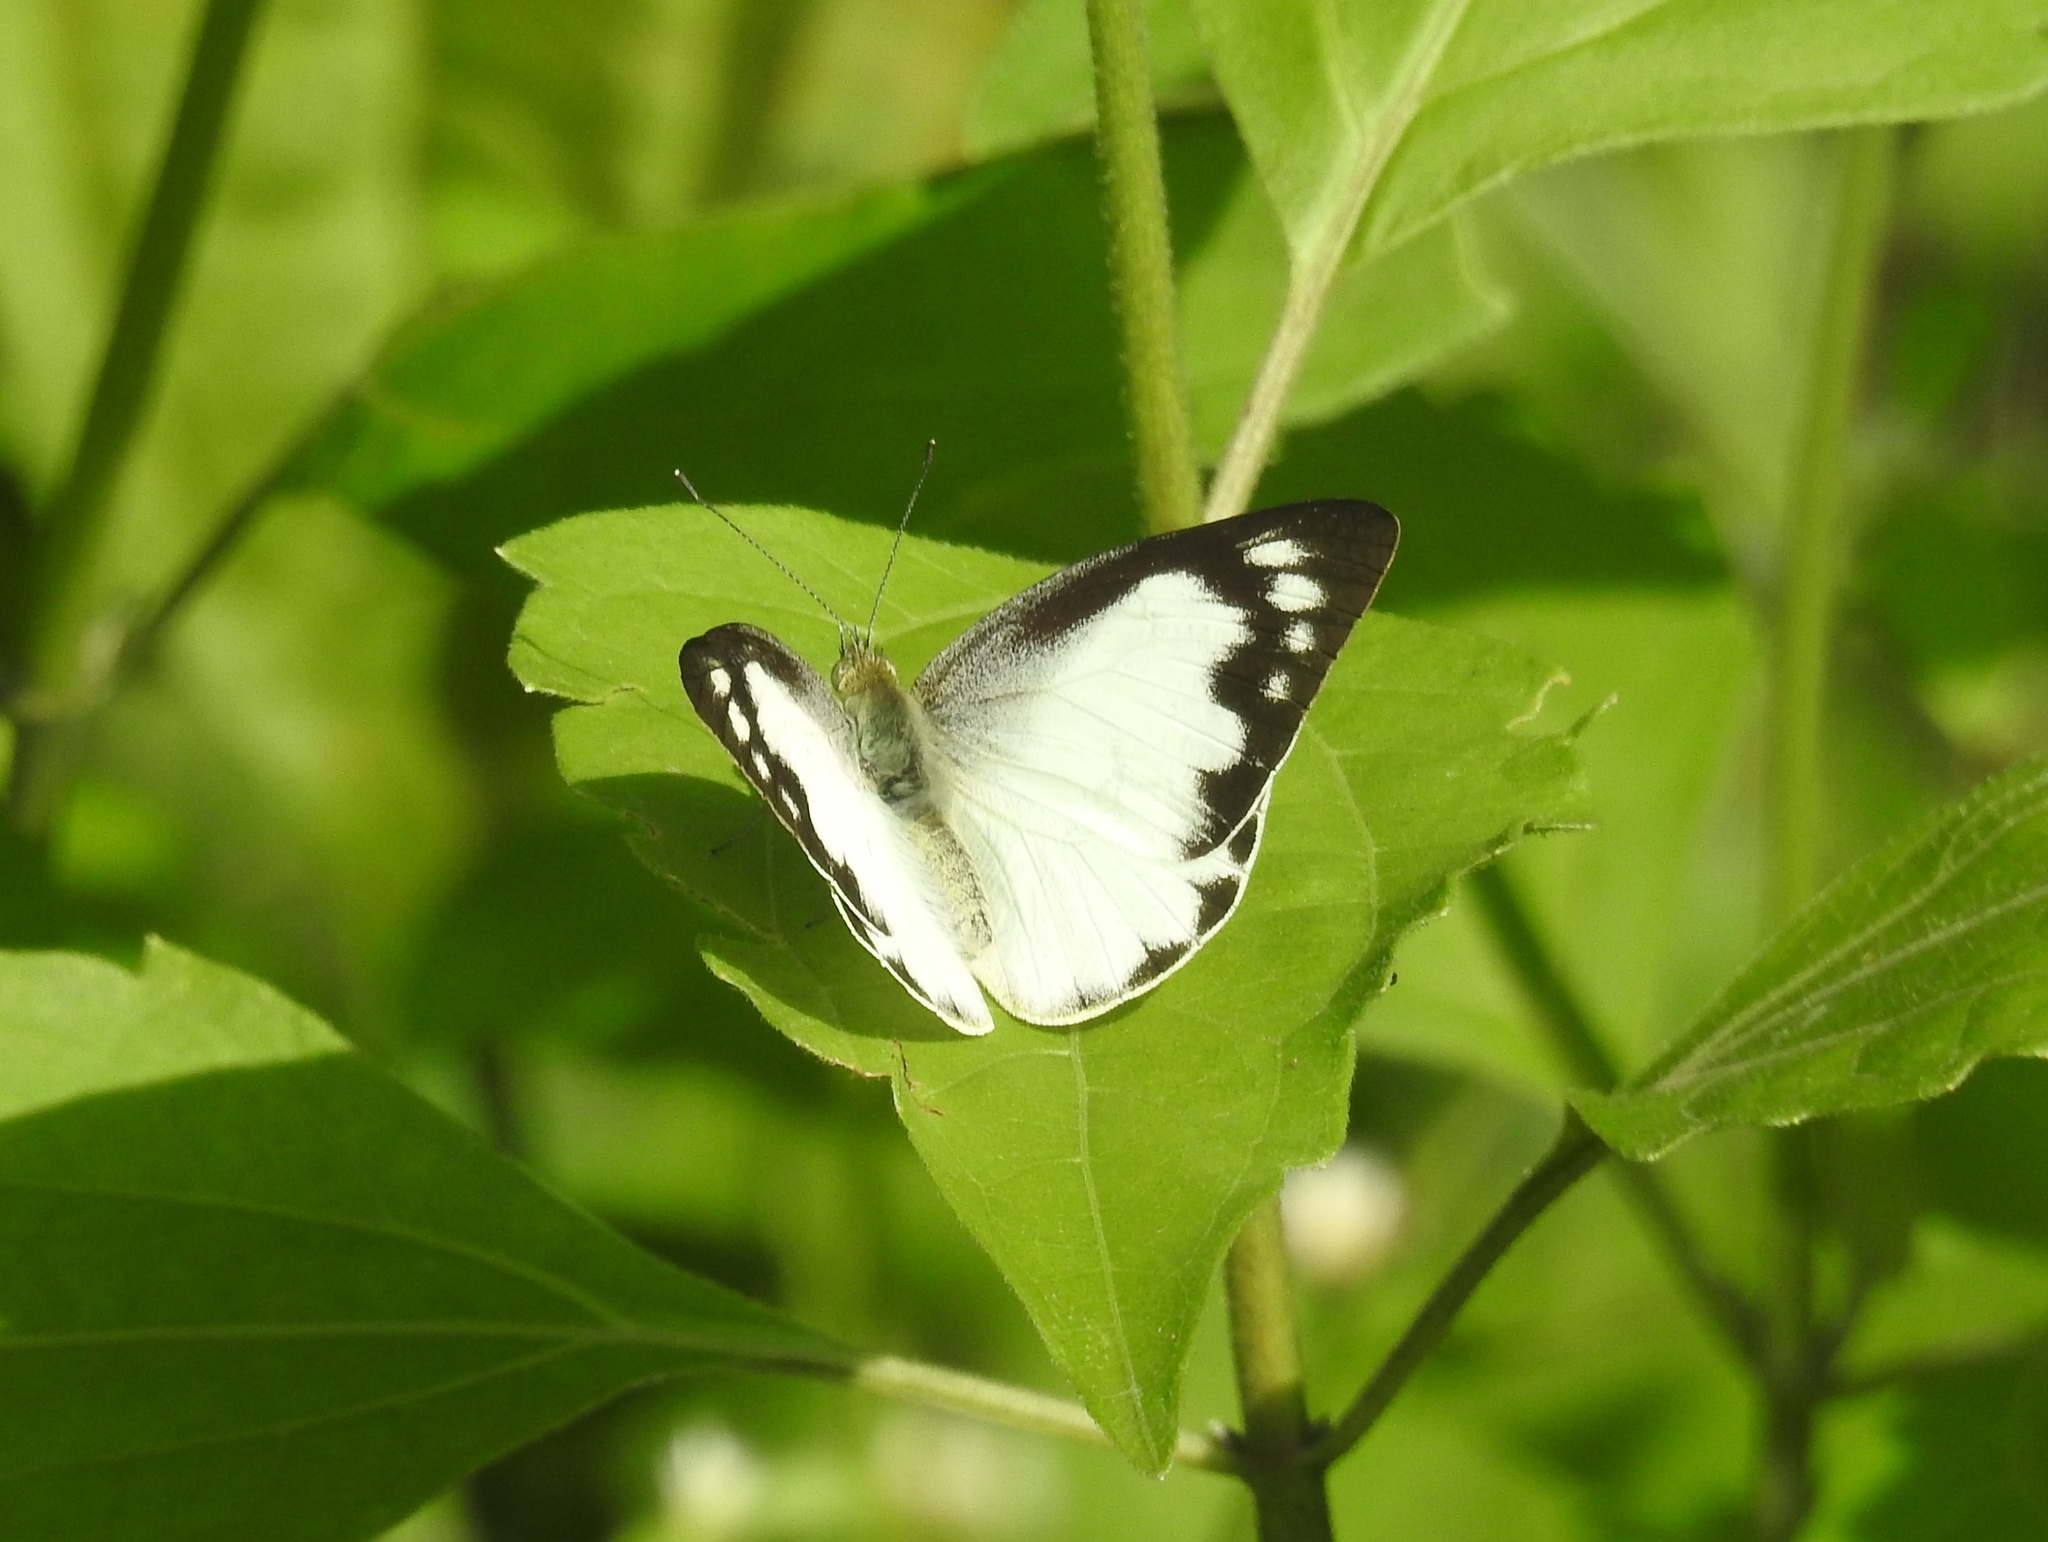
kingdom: Animalia
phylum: Arthropoda
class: Insecta
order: Lepidoptera
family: Pieridae
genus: Appias
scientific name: Appias albina
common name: Common albatross
